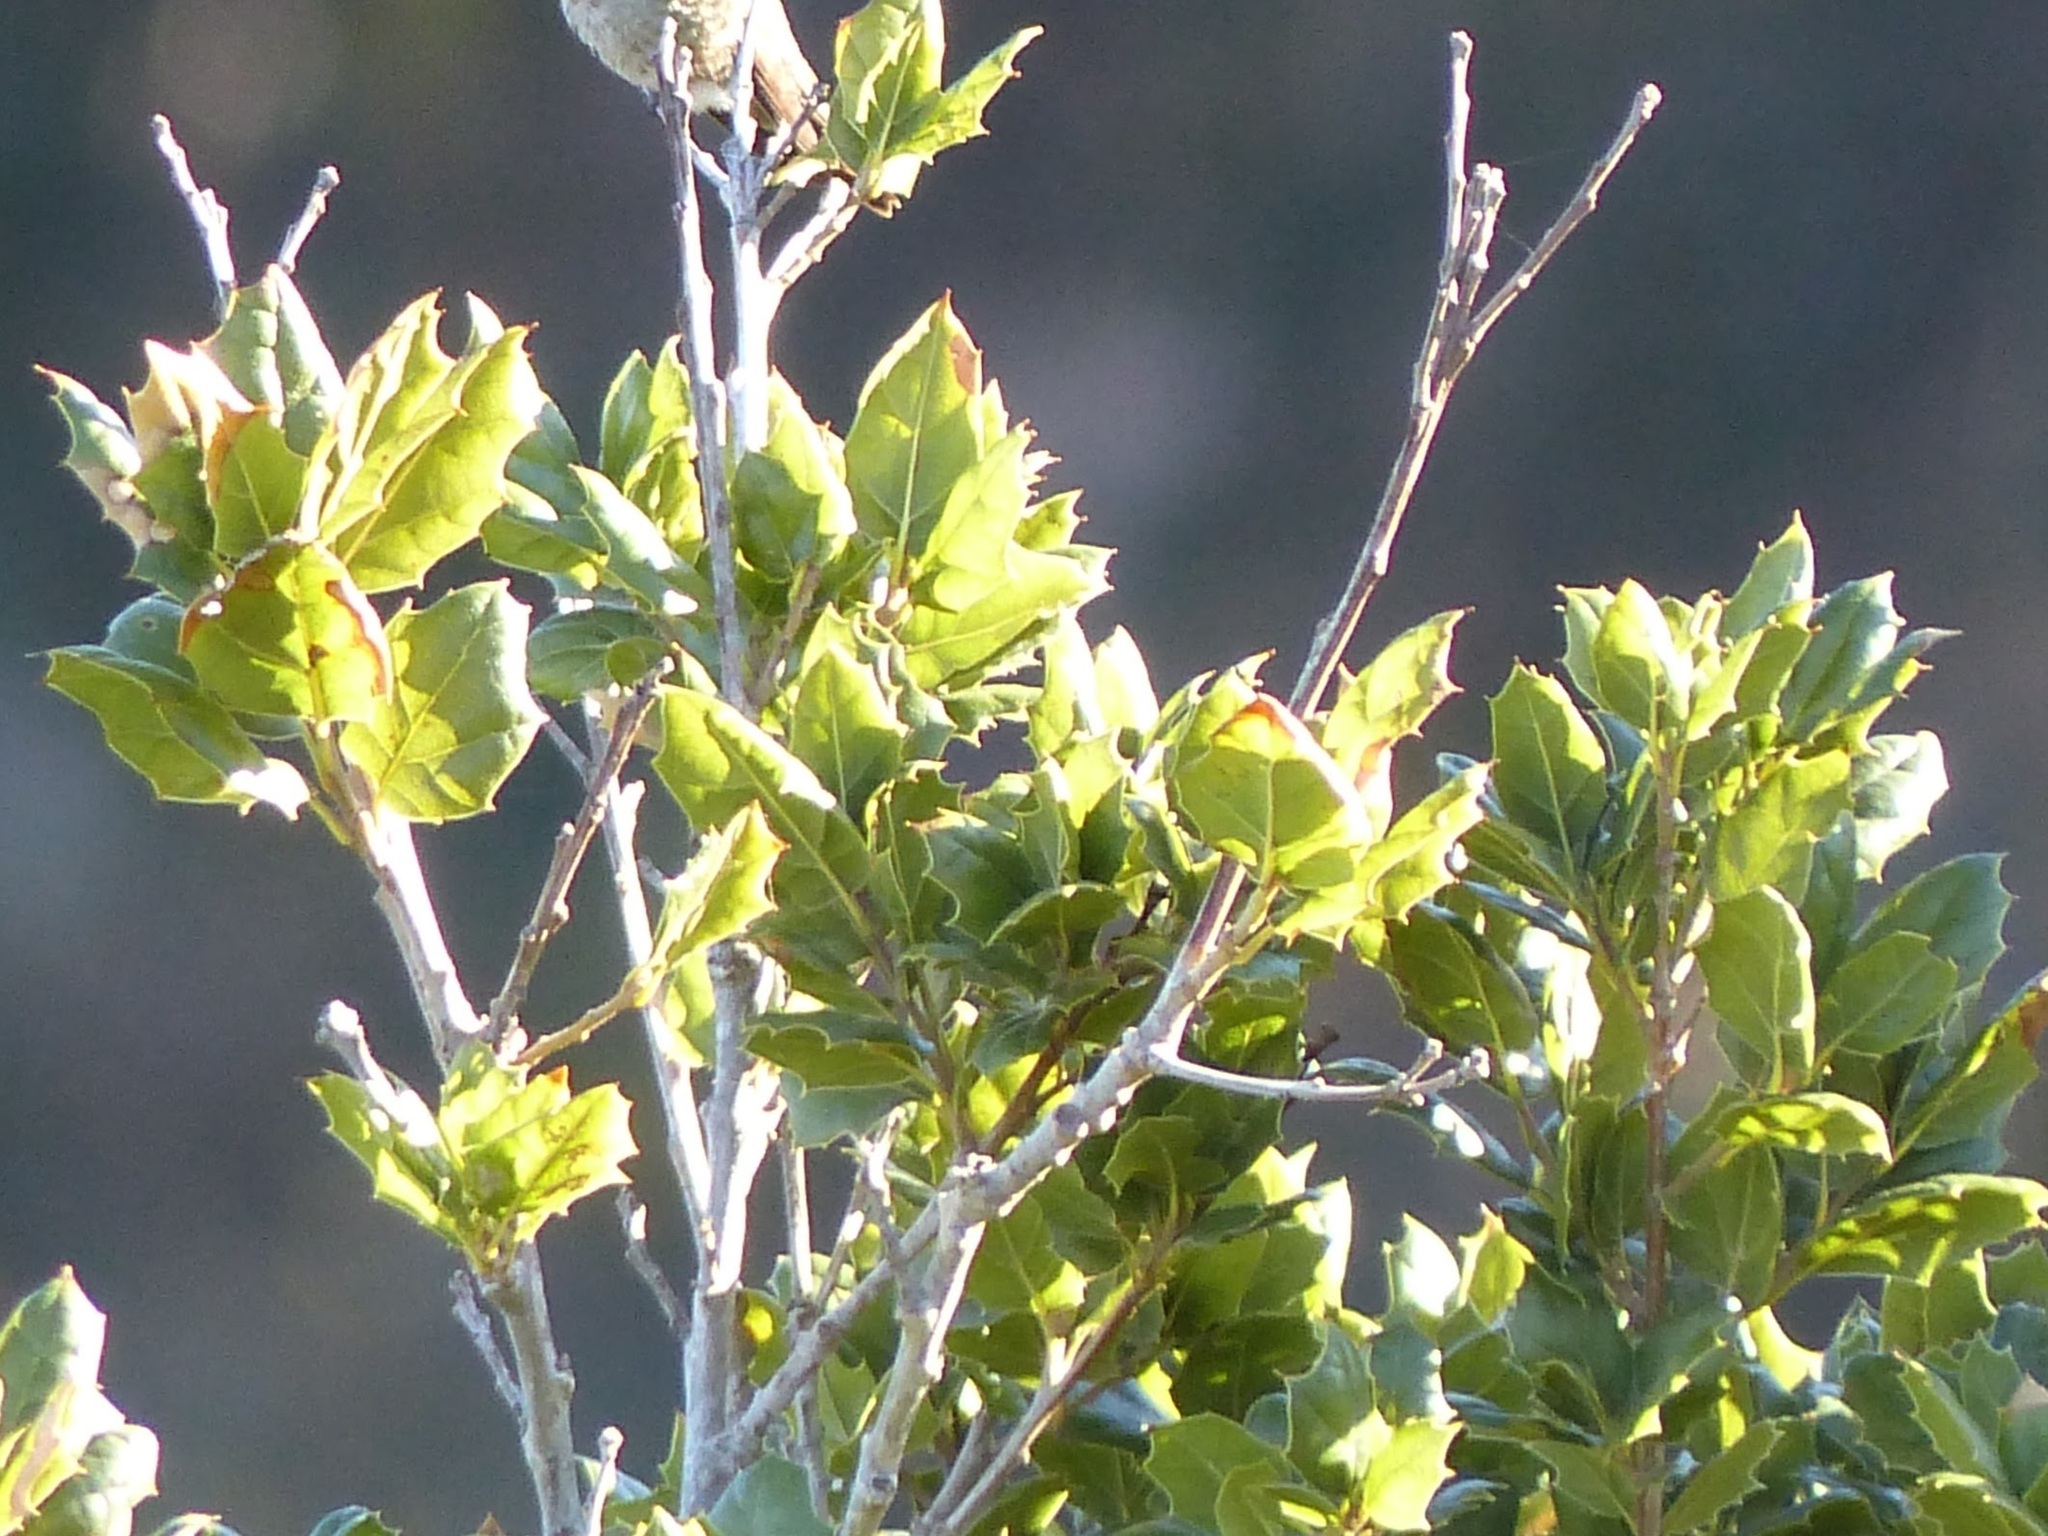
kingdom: Plantae
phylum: Tracheophyta
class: Magnoliopsida
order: Fagales
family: Fagaceae
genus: Quercus
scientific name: Quercus agrifolia
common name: California live oak
